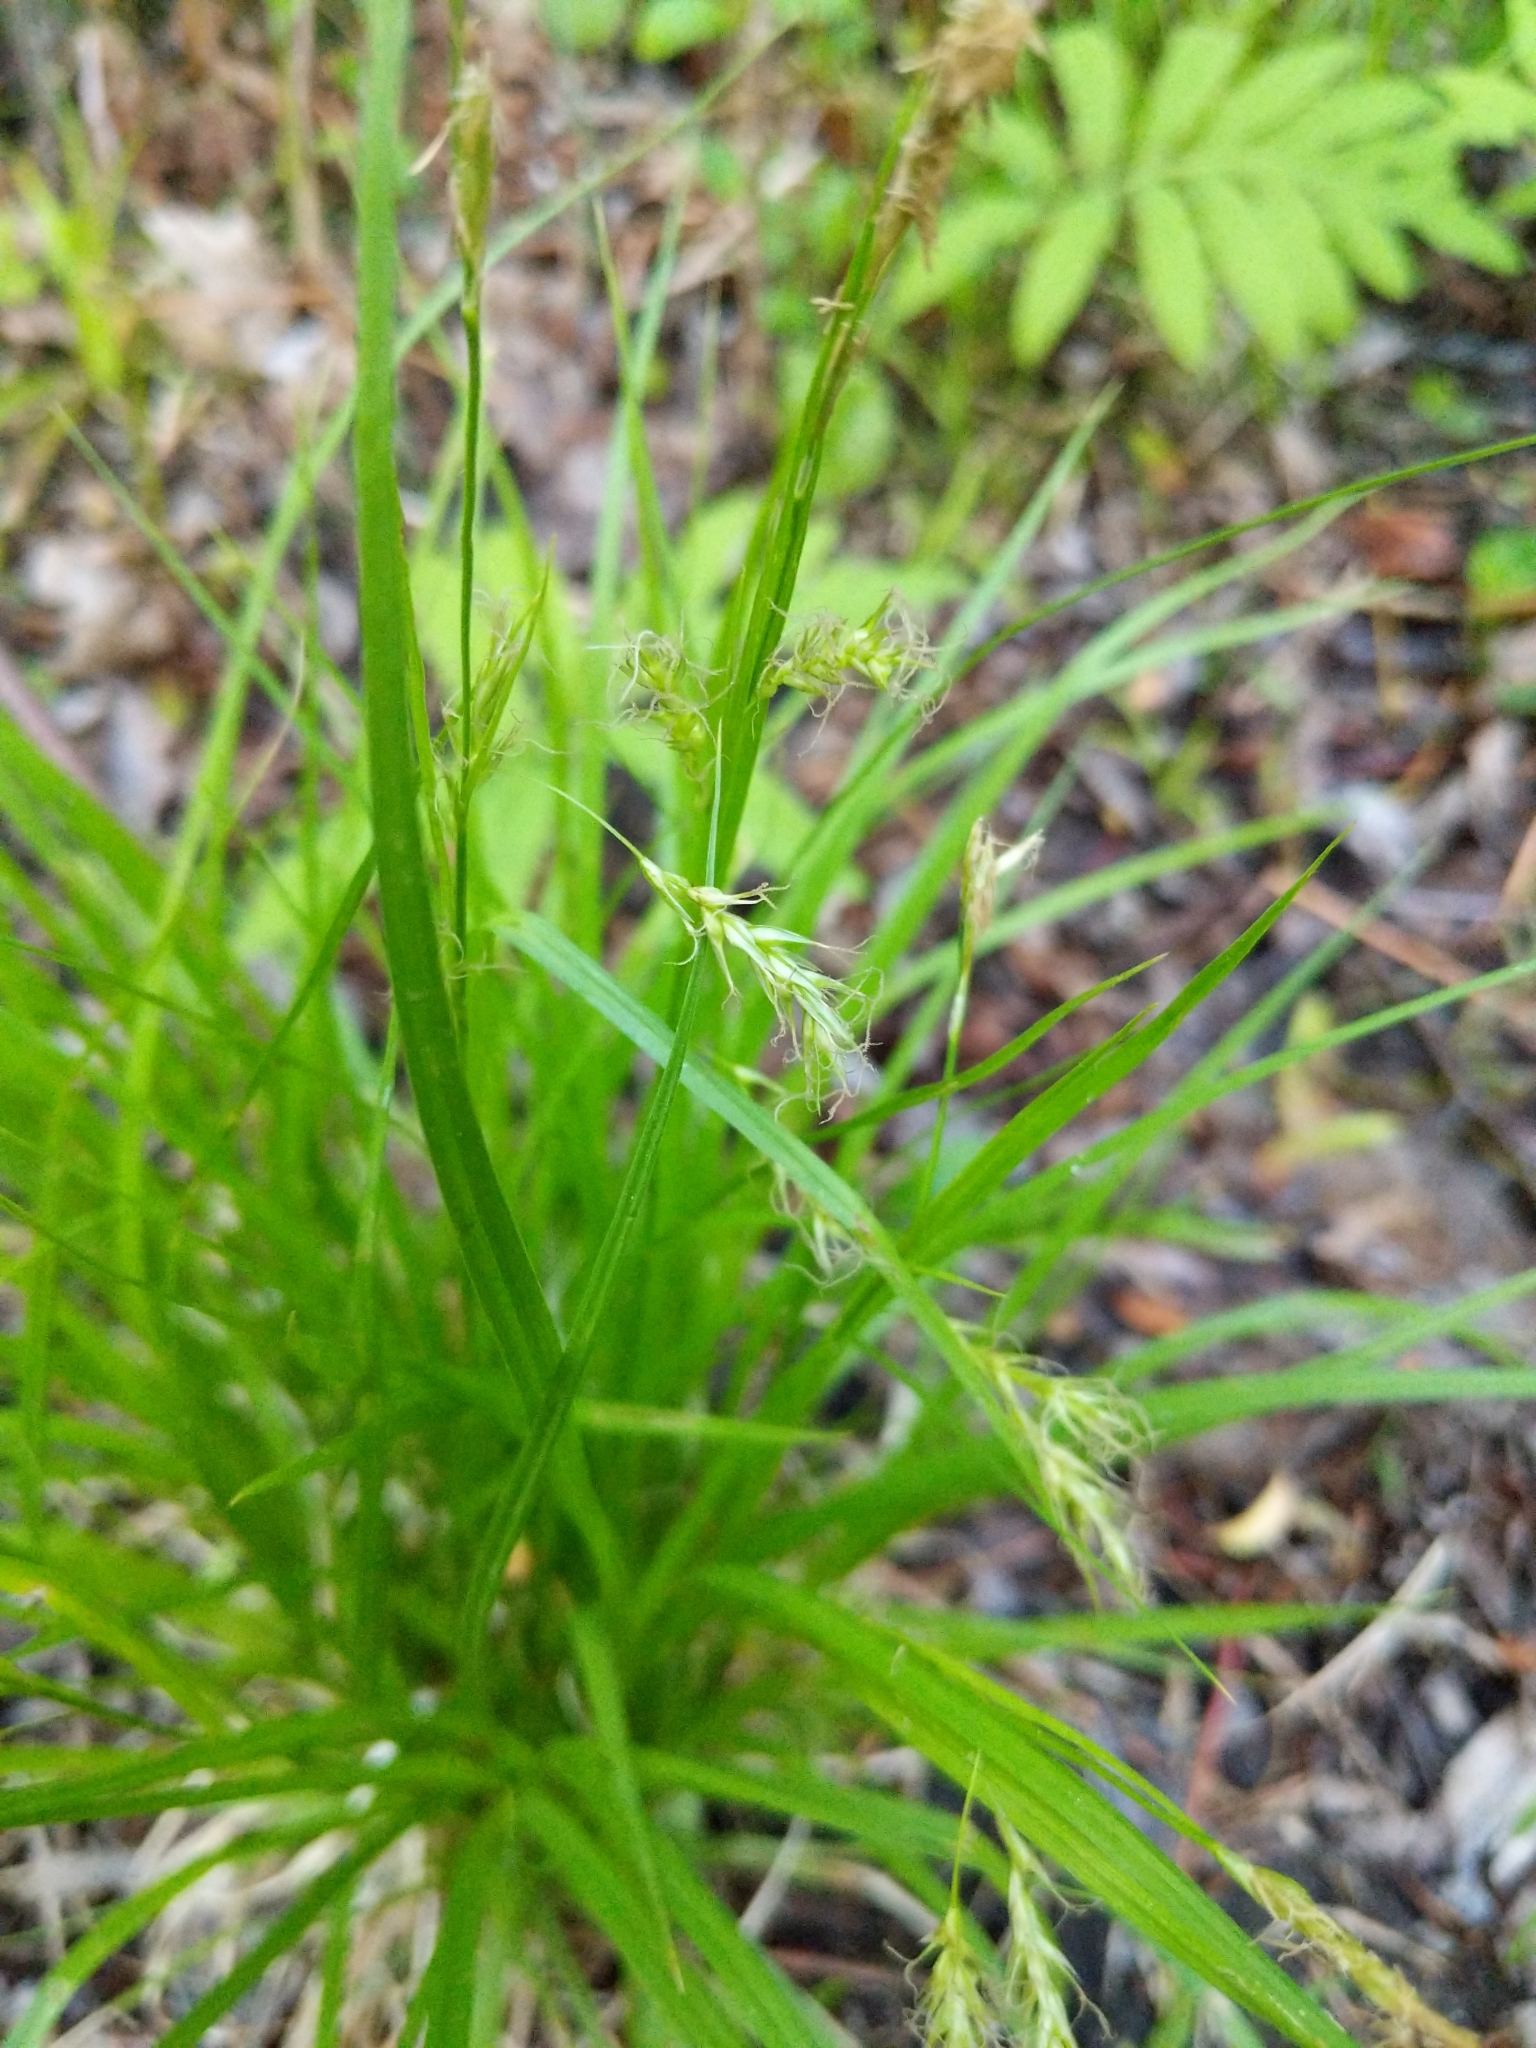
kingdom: Plantae
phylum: Tracheophyta
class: Liliopsida
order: Poales
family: Cyperaceae
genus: Carex
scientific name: Carex sprengelii
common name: Long-beaked sedge
